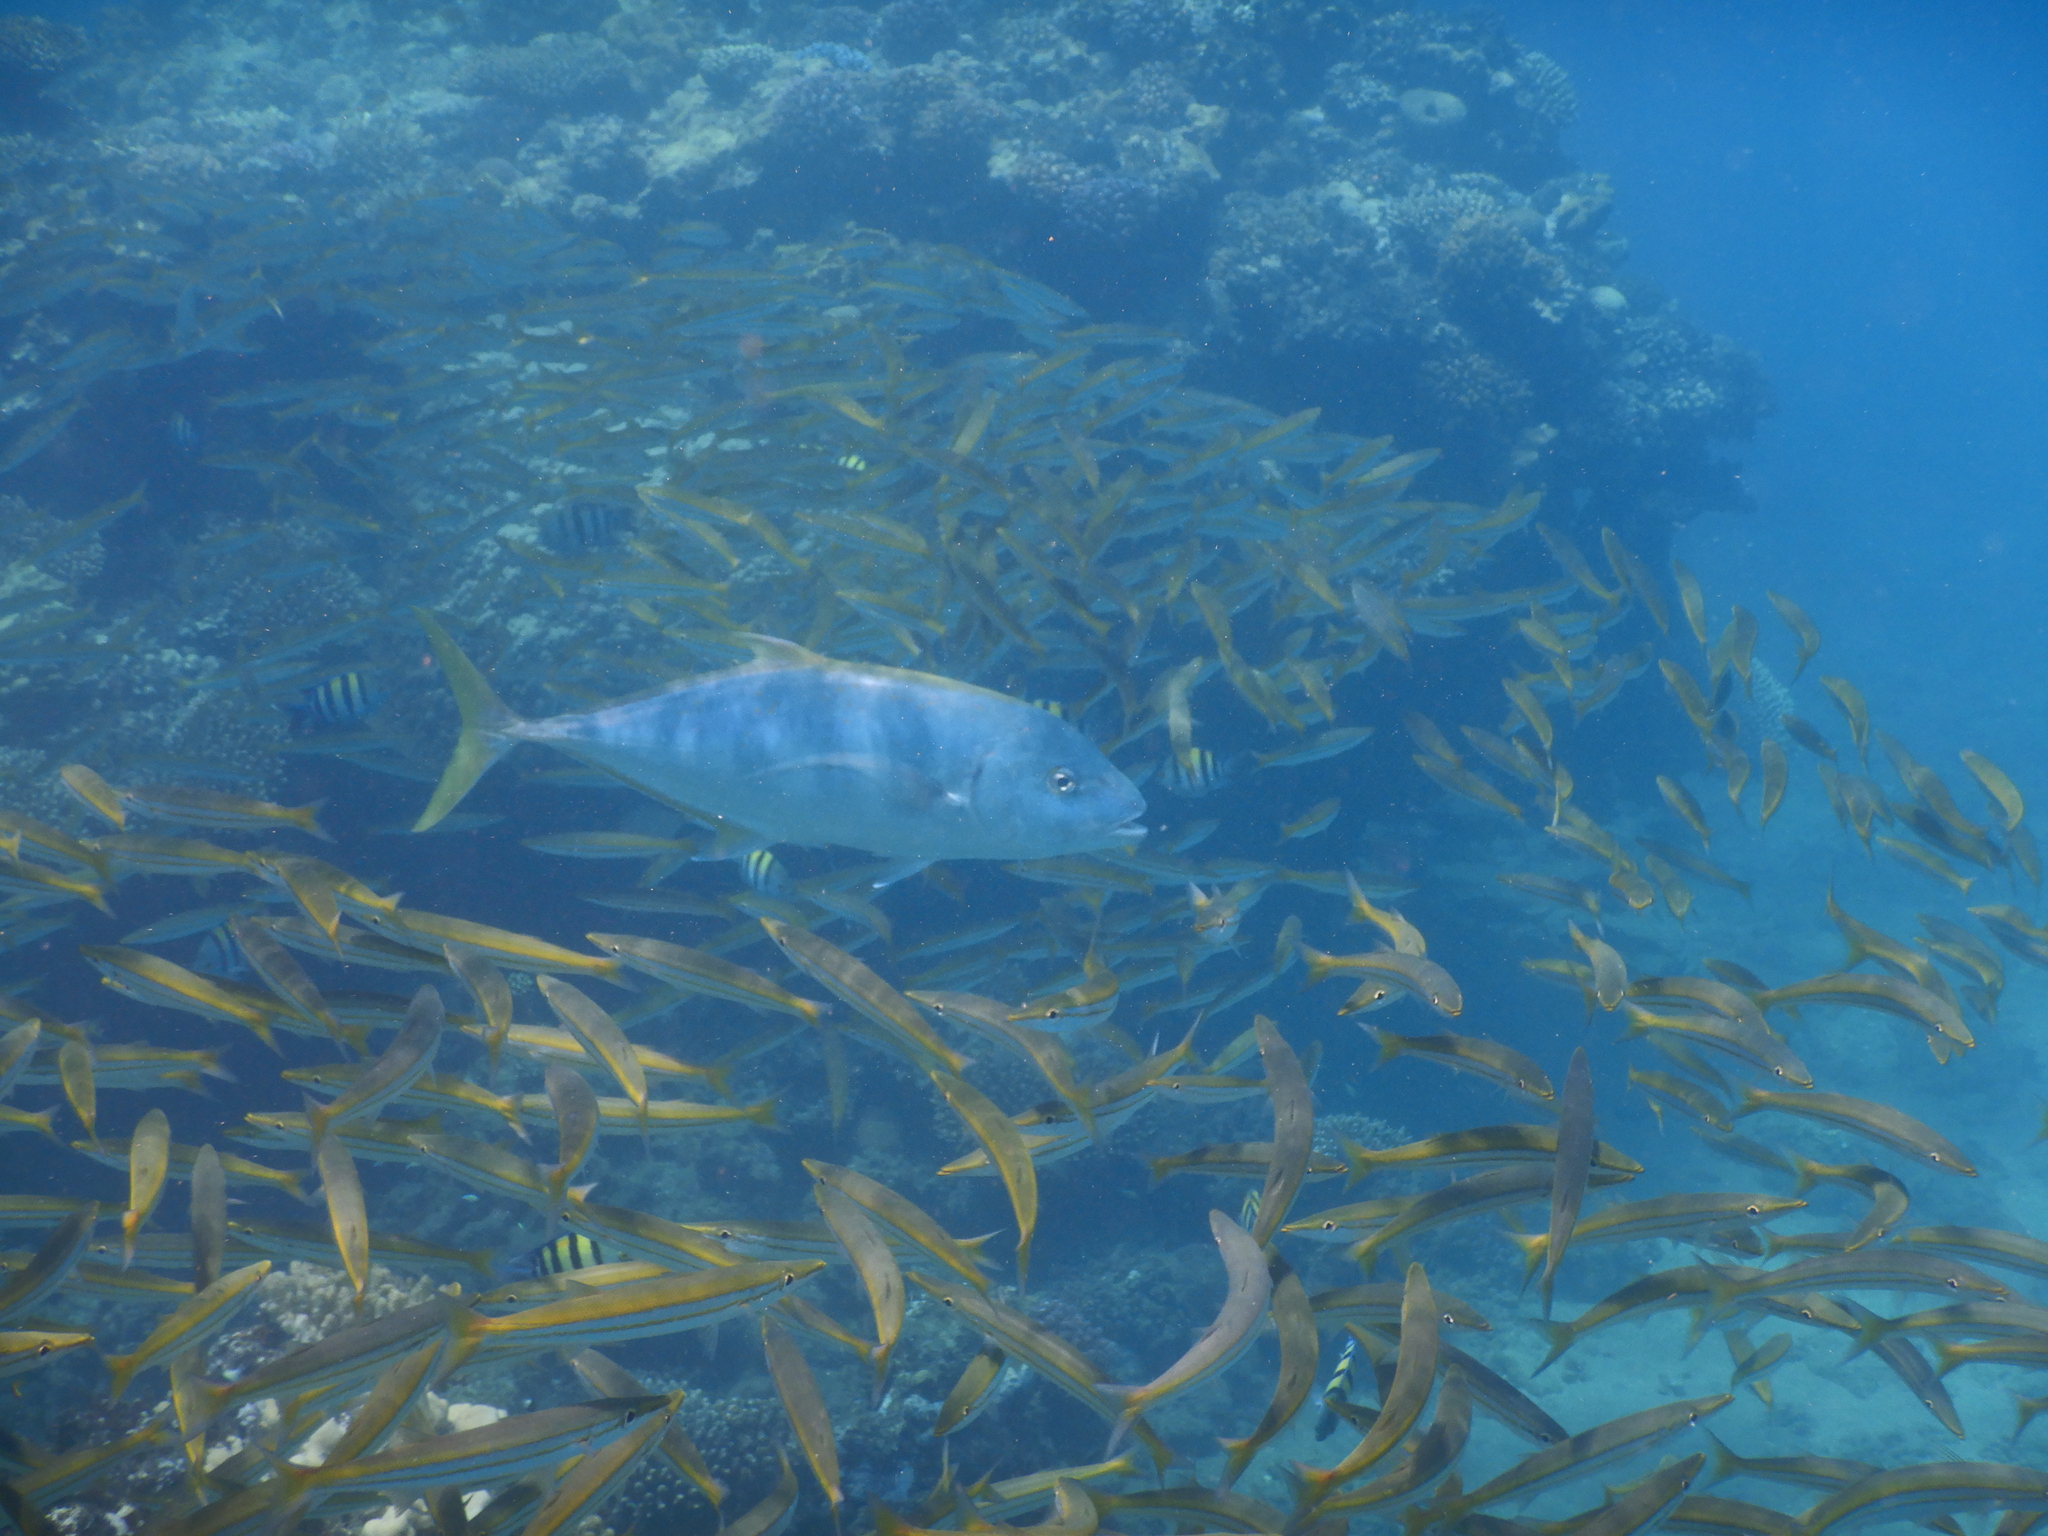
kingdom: Animalia
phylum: Chordata
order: Perciformes
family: Carangidae
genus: Carangoides
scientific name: Carangoides Turrum fulvoguttatum
